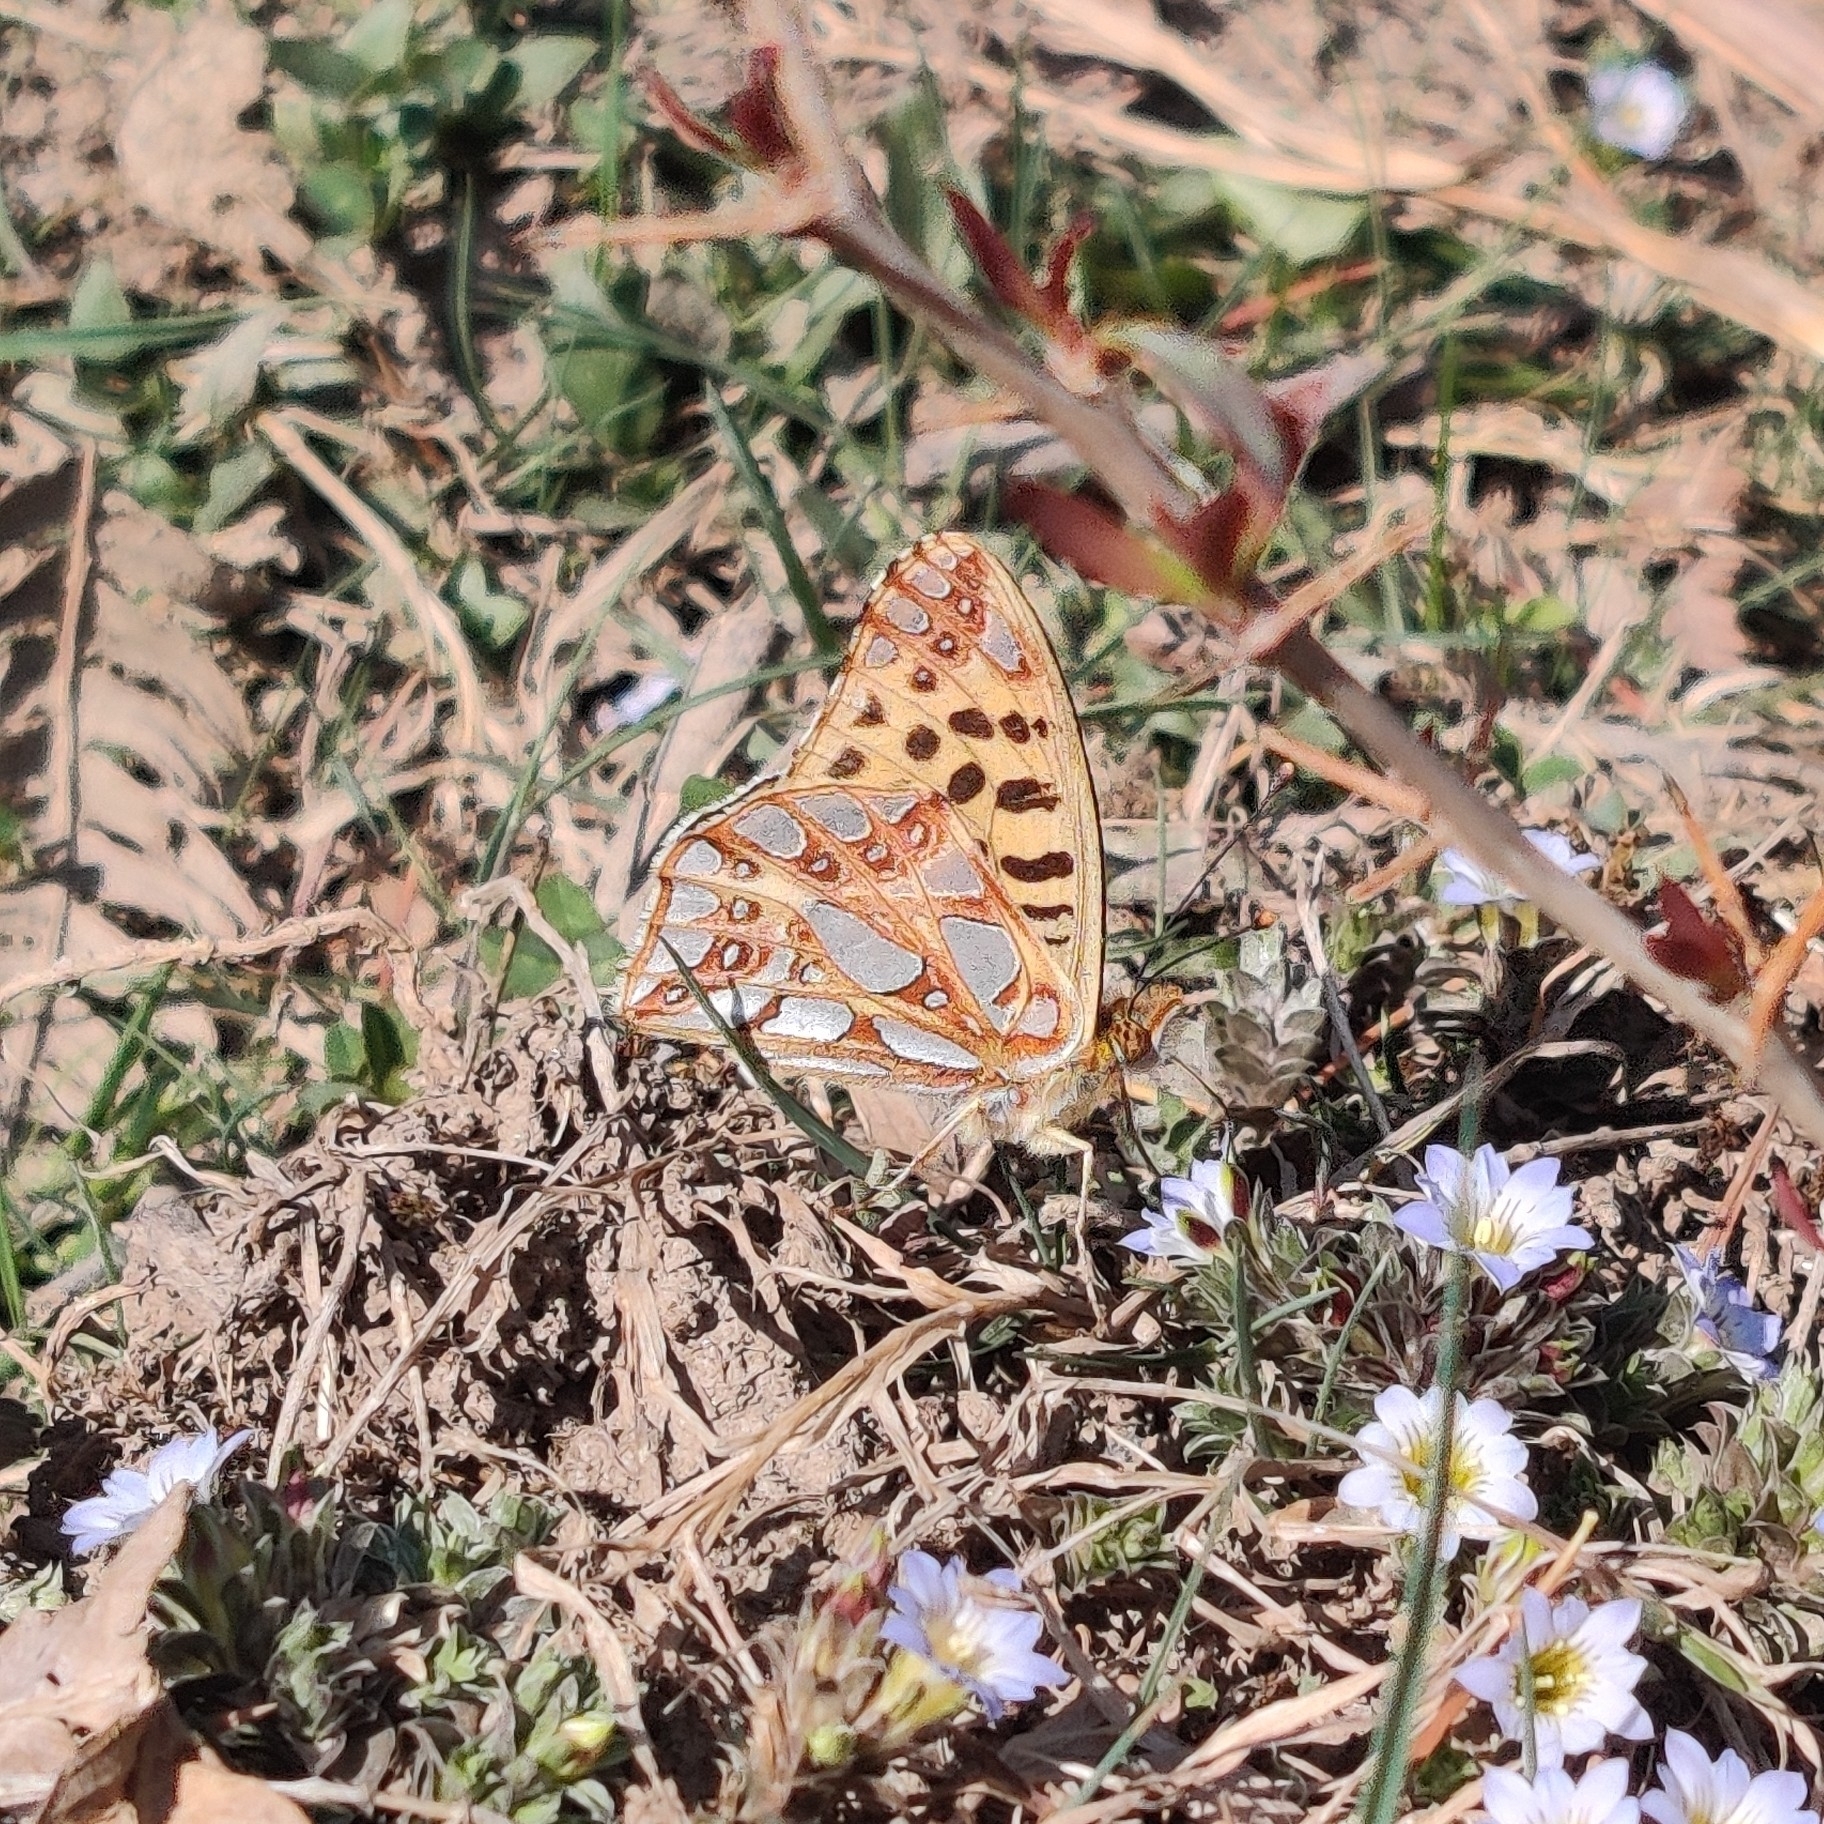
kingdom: Animalia
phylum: Arthropoda
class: Insecta
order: Lepidoptera
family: Nymphalidae
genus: Issoria
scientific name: Issoria
